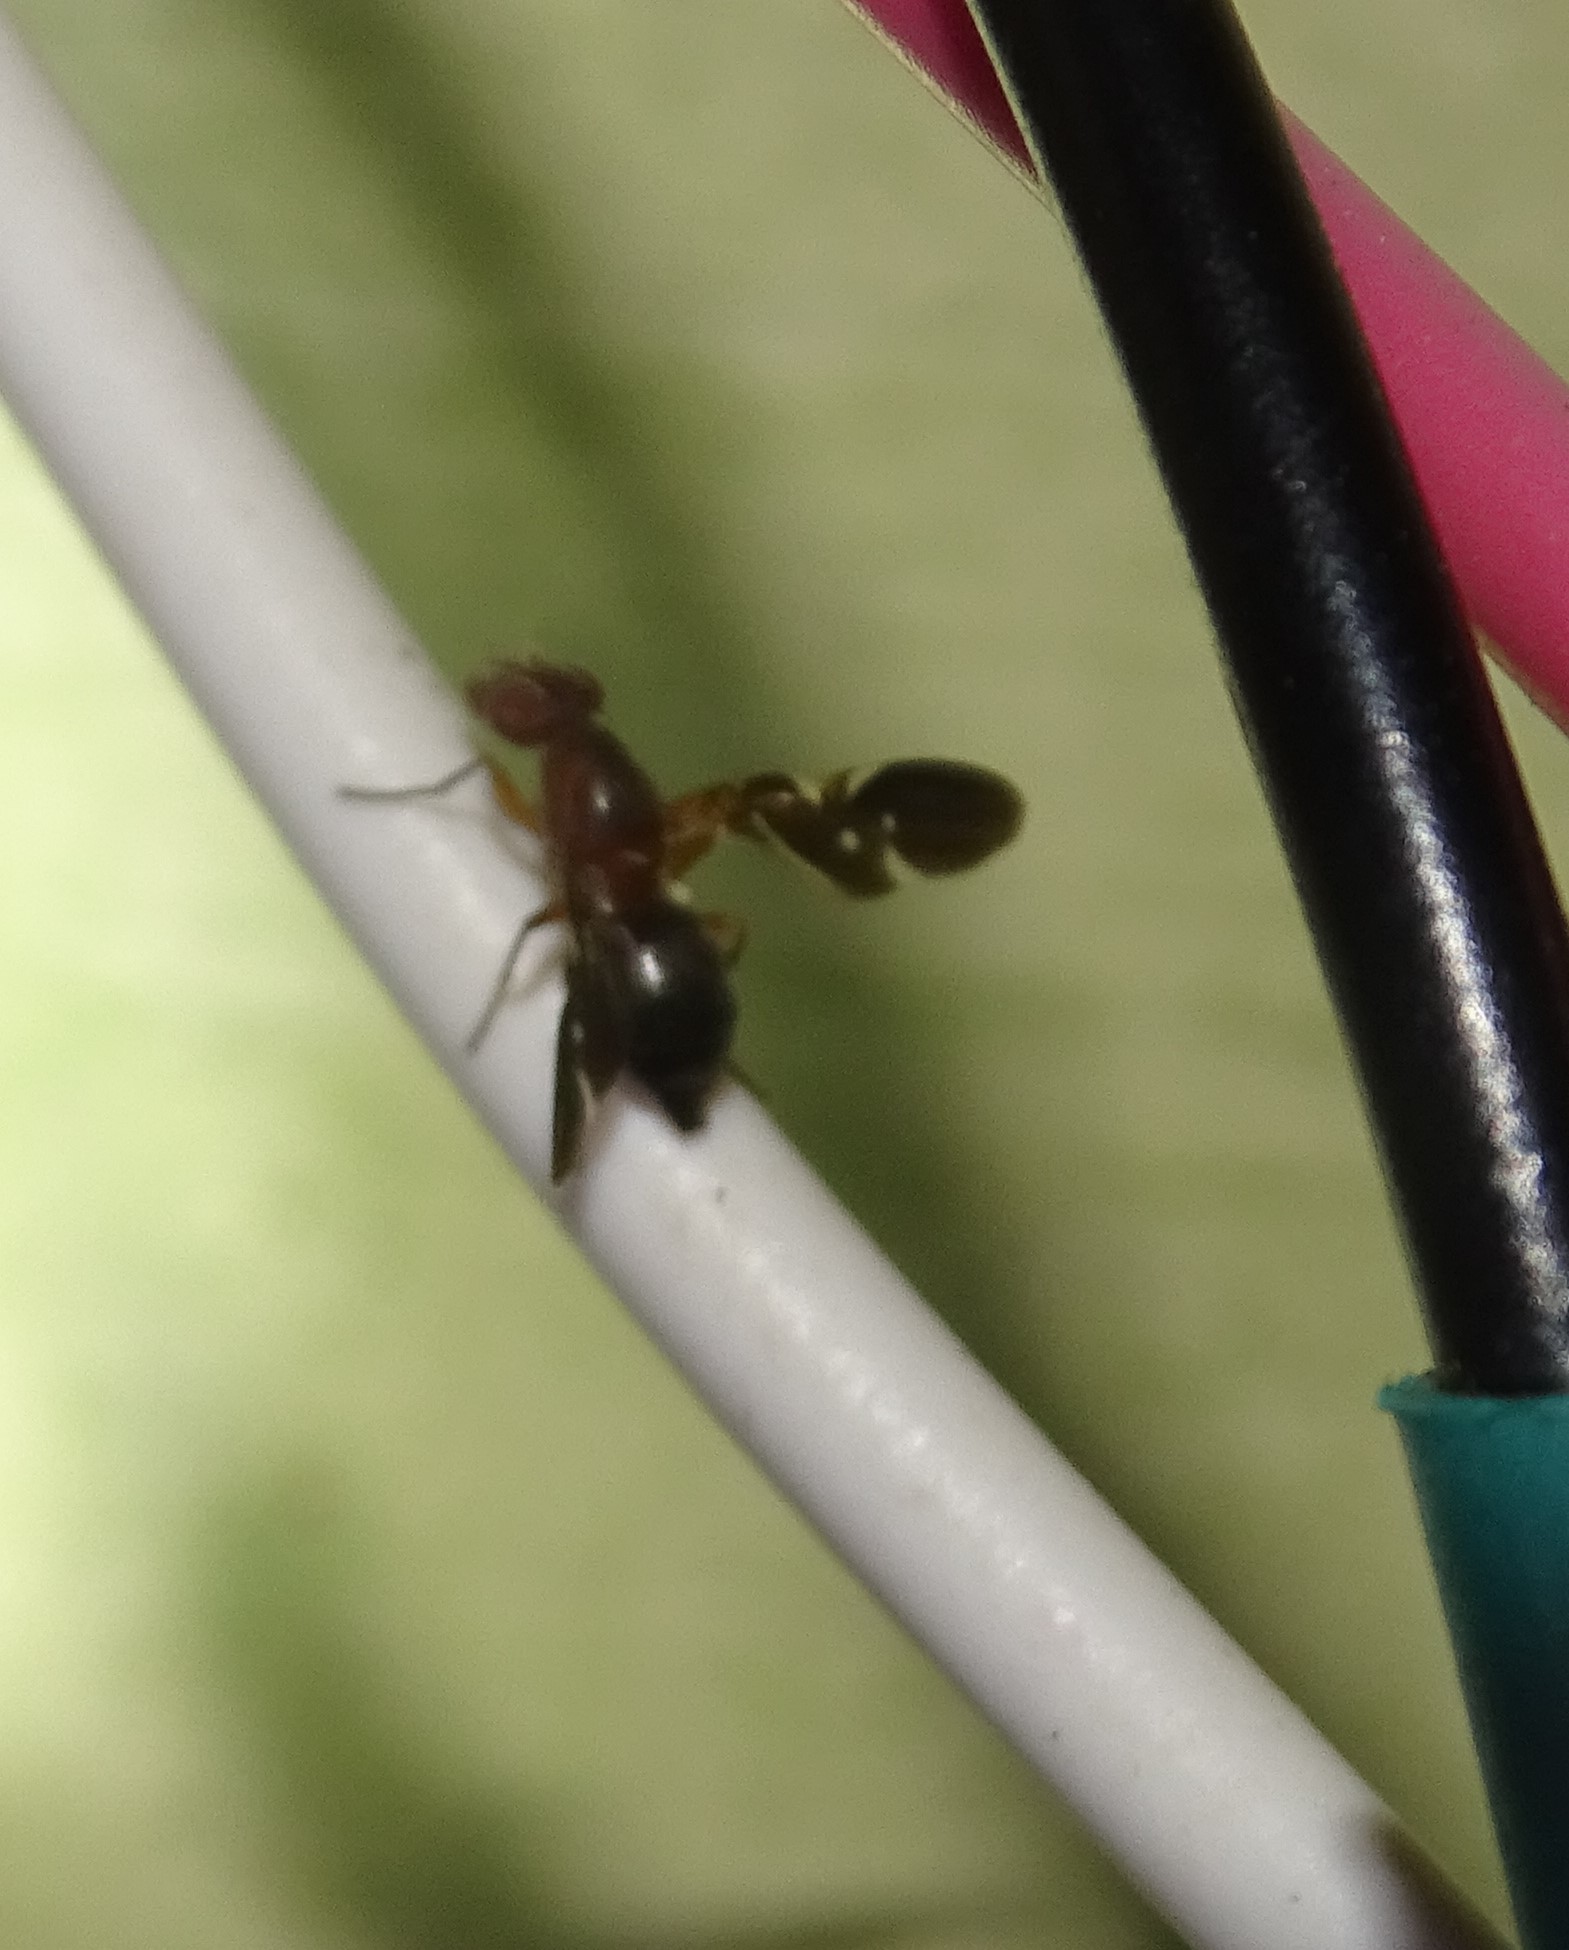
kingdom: Animalia
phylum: Arthropoda
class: Insecta
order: Diptera
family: Ulidiidae
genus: Delphinia
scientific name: Delphinia picta
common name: Common picture-winged fly
